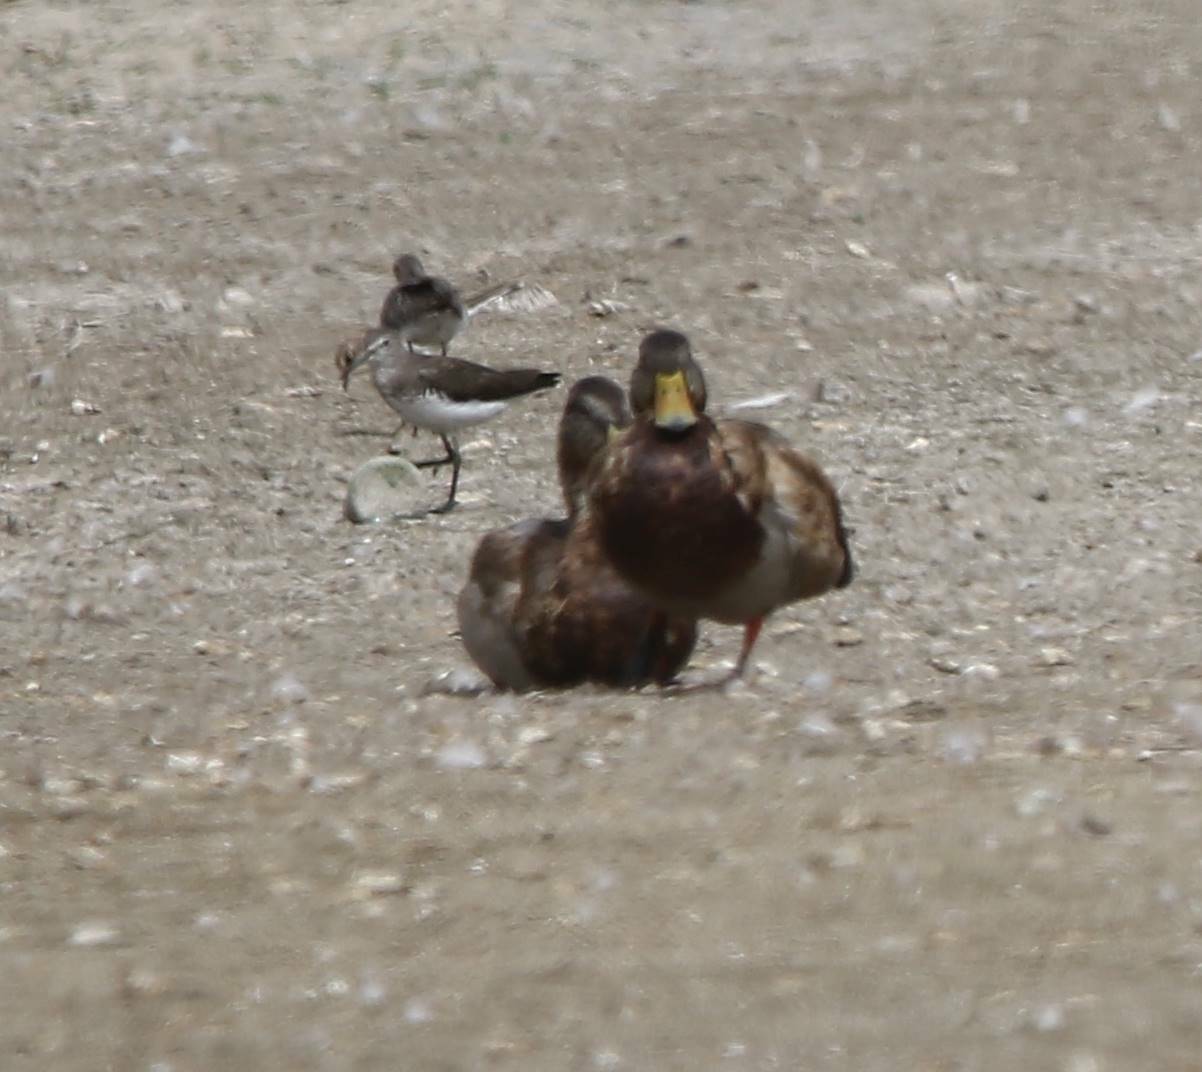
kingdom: Animalia
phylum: Chordata
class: Aves
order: Anseriformes
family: Anatidae
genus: Anas
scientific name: Anas platyrhynchos
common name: Mallard
